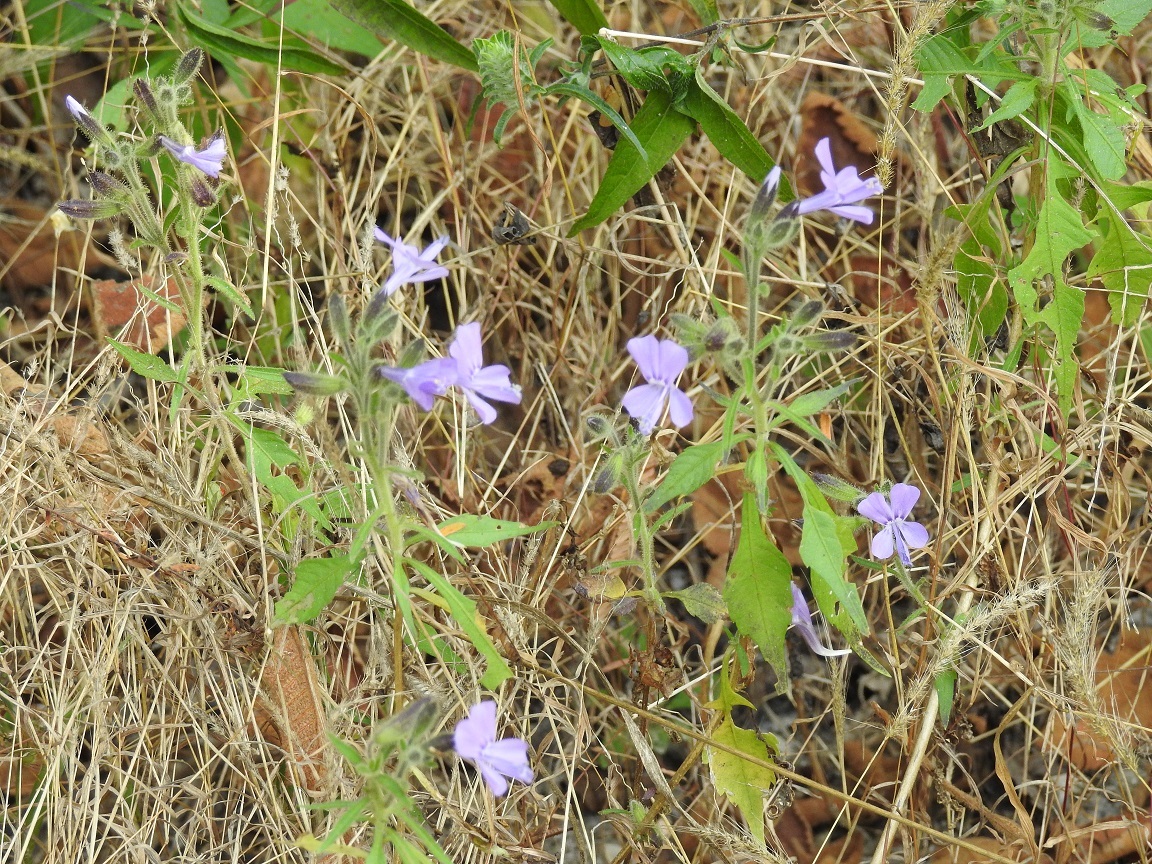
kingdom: Plantae
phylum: Tracheophyta
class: Magnoliopsida
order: Ericales
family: Polemoniaceae
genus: Bonplandia
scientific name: Bonplandia geminiflora
